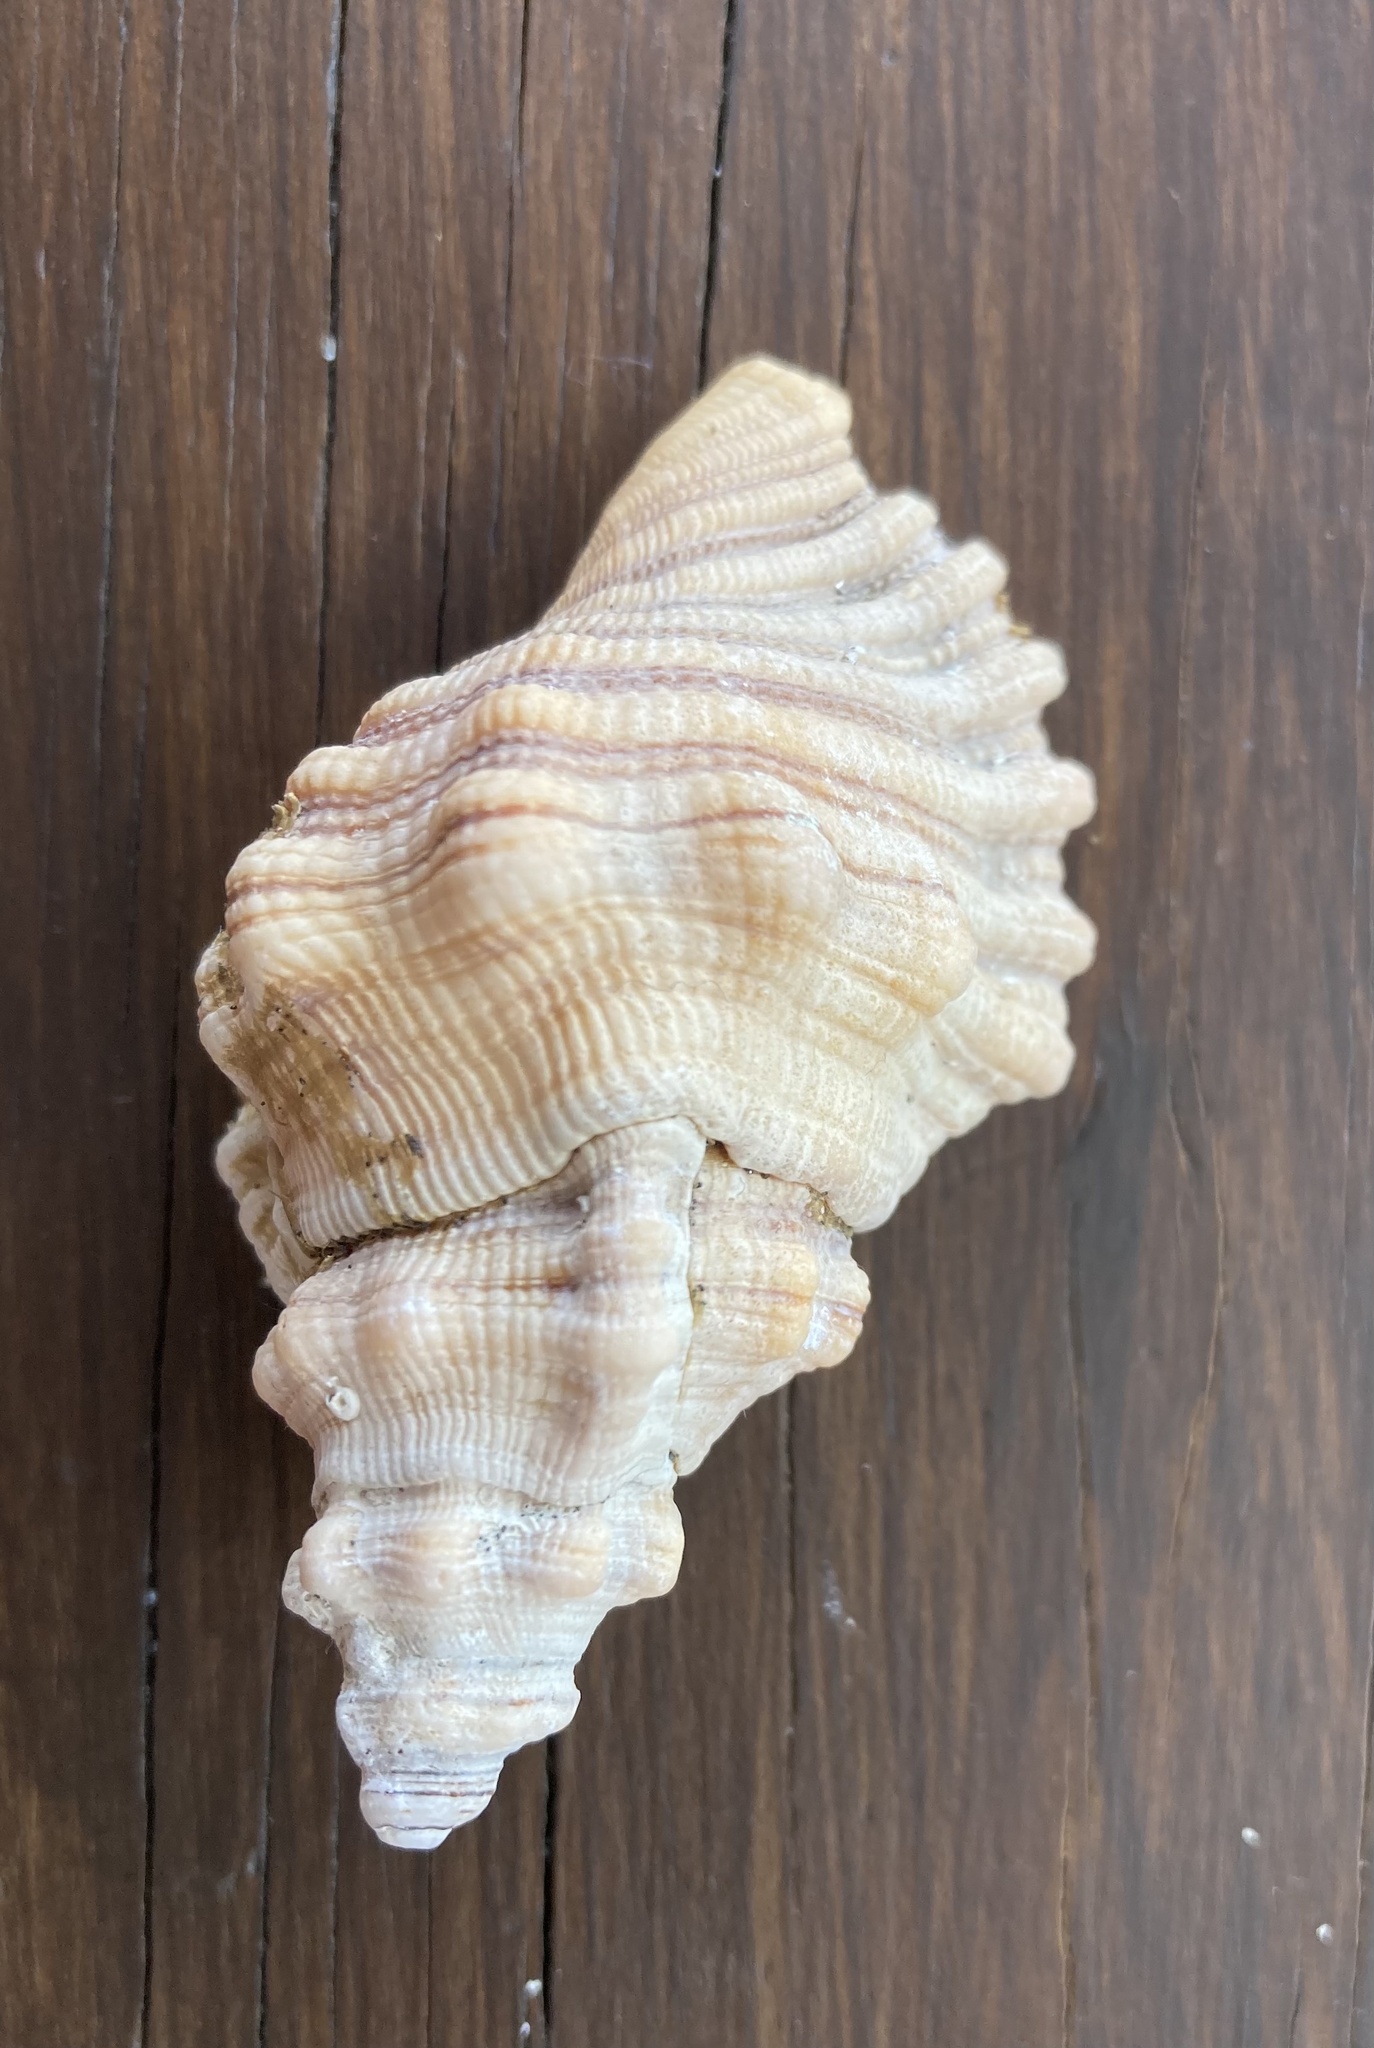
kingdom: Animalia
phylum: Mollusca
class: Gastropoda
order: Littorinimorpha
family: Cymatiidae
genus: Cabestana
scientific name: Cabestana spengleri
